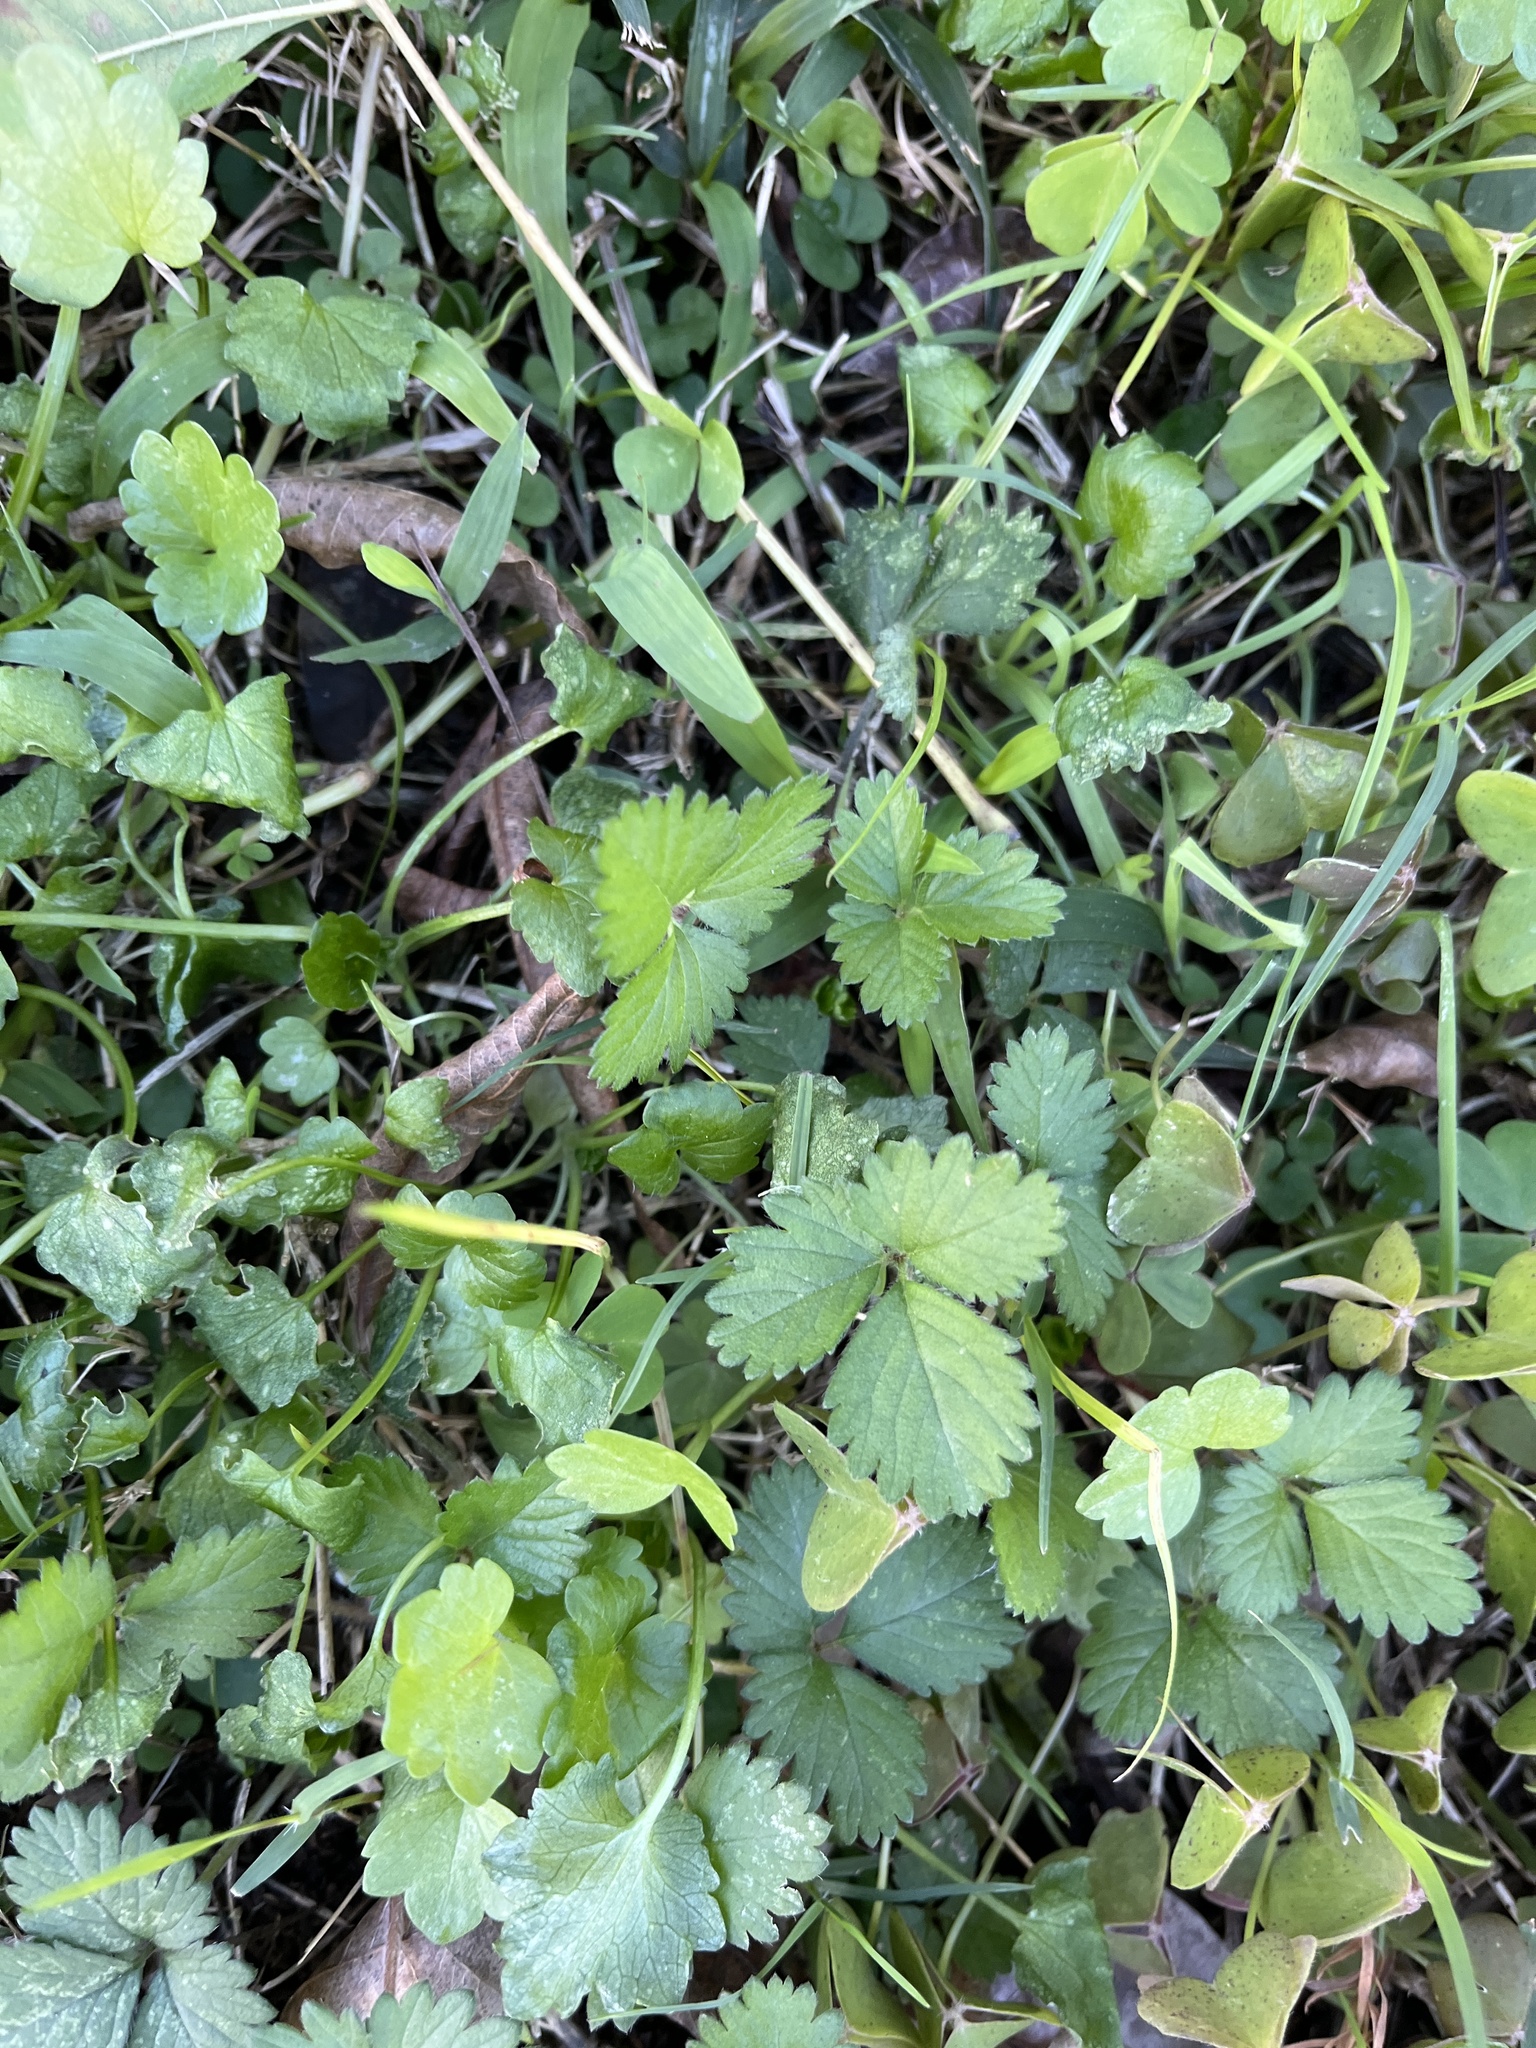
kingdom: Plantae
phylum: Tracheophyta
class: Magnoliopsida
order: Rosales
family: Rosaceae
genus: Potentilla
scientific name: Potentilla indica
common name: Yellow-flowered strawberry
